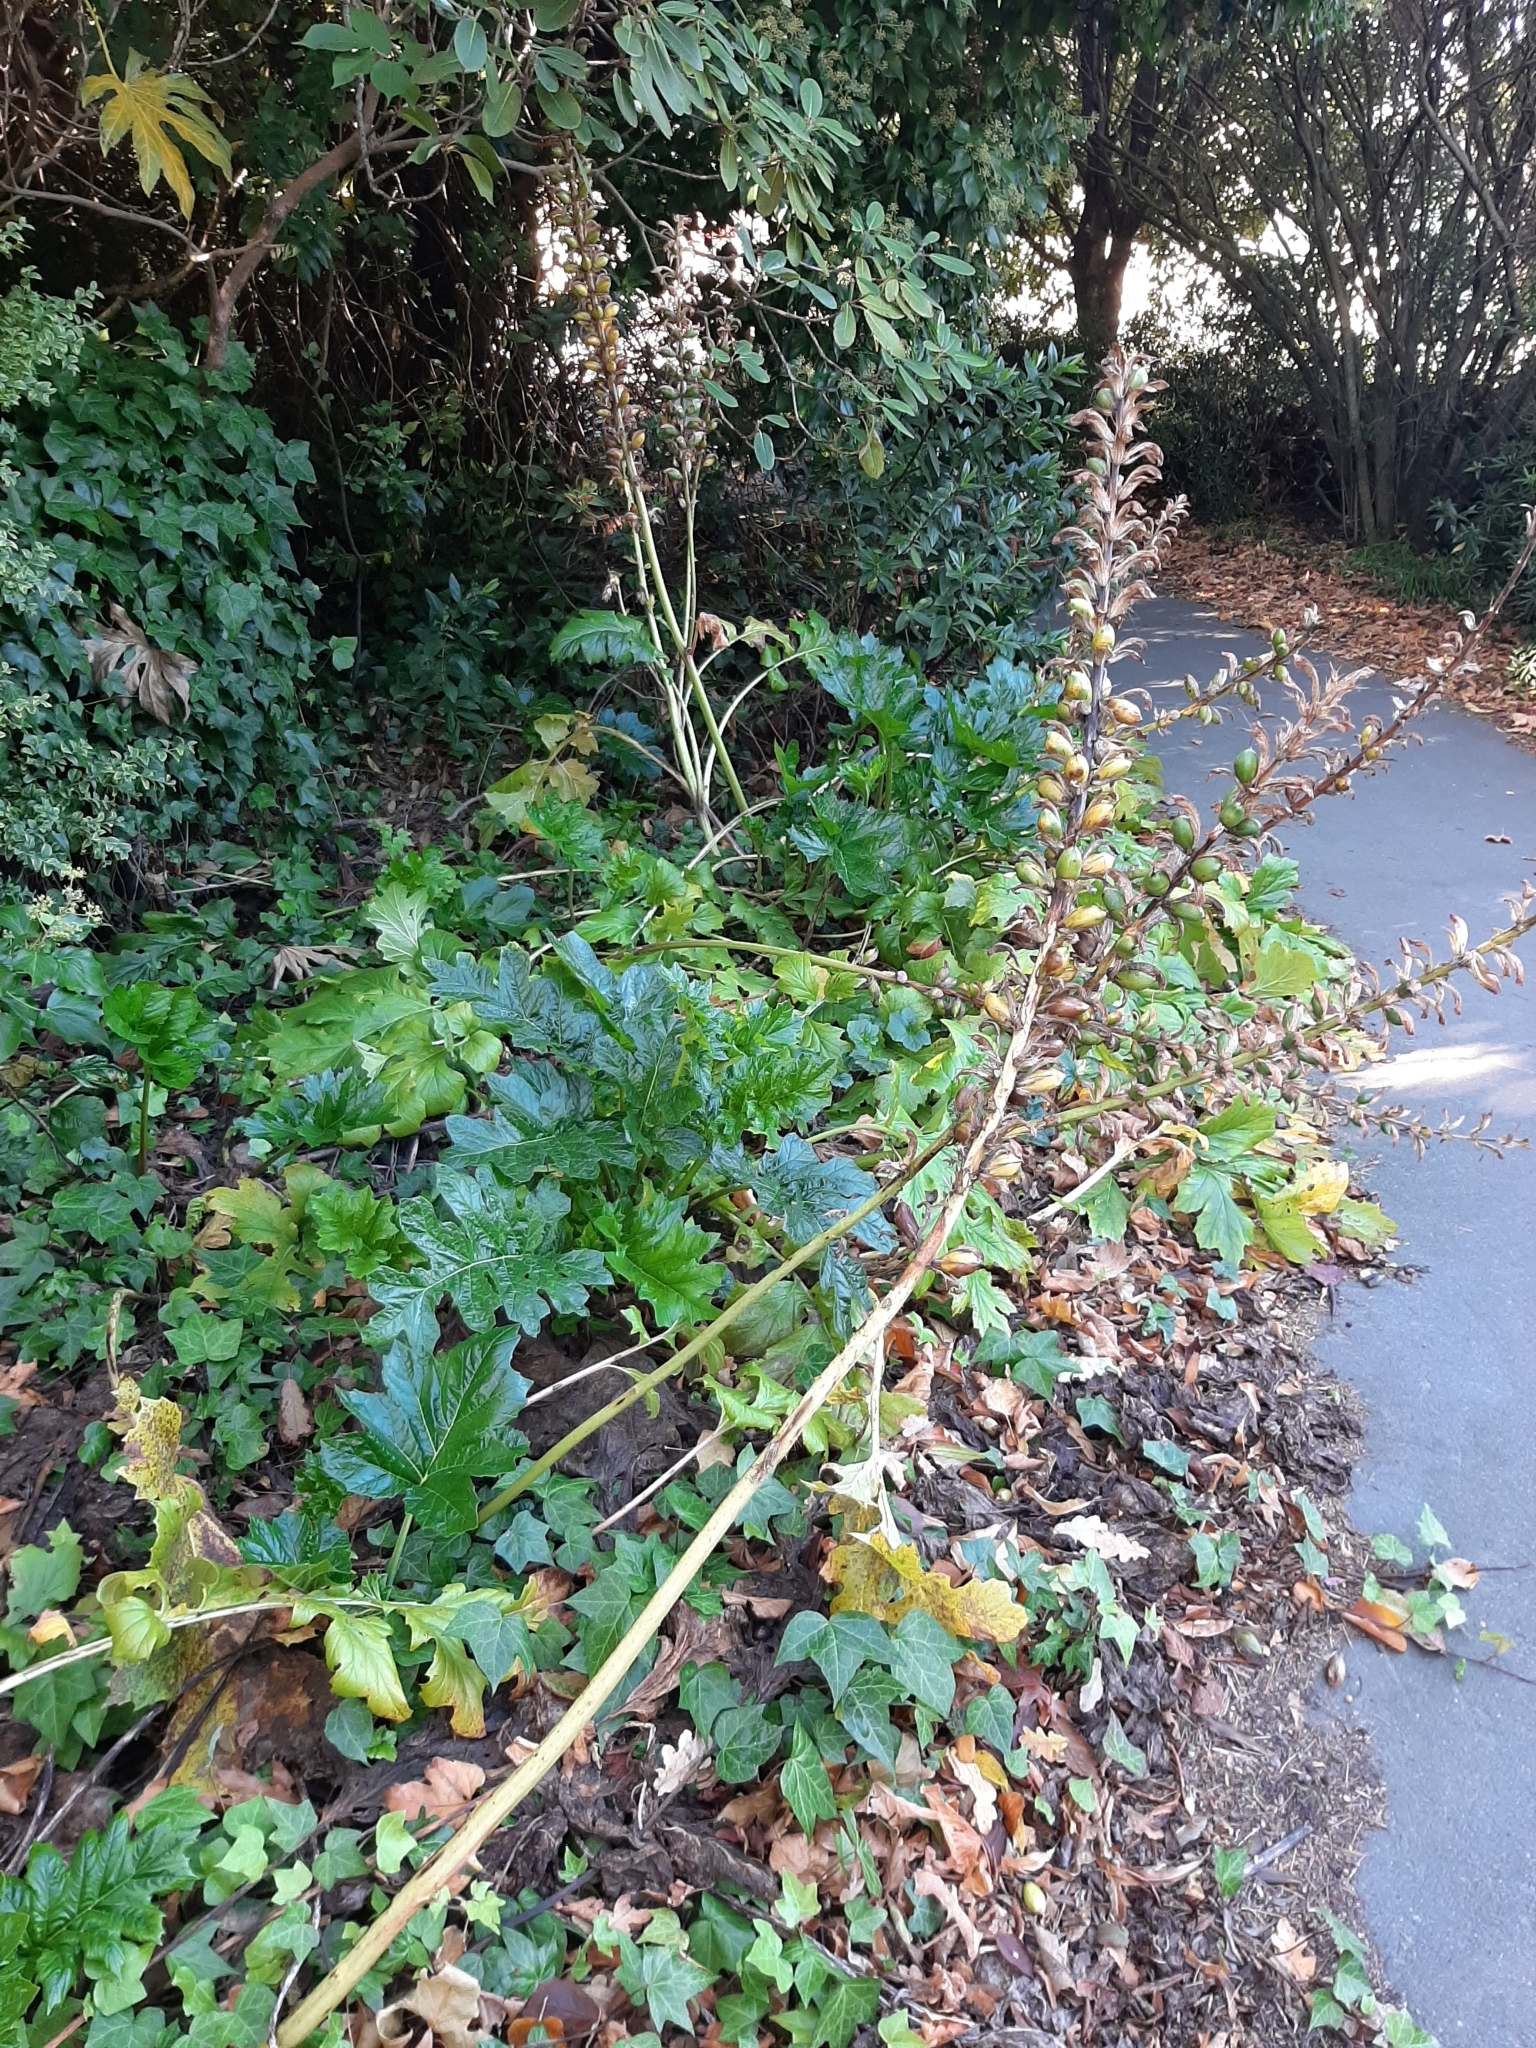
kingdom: Plantae
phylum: Tracheophyta
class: Magnoliopsida
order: Lamiales
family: Acanthaceae
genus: Acanthus
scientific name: Acanthus mollis
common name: Bear's-breech
